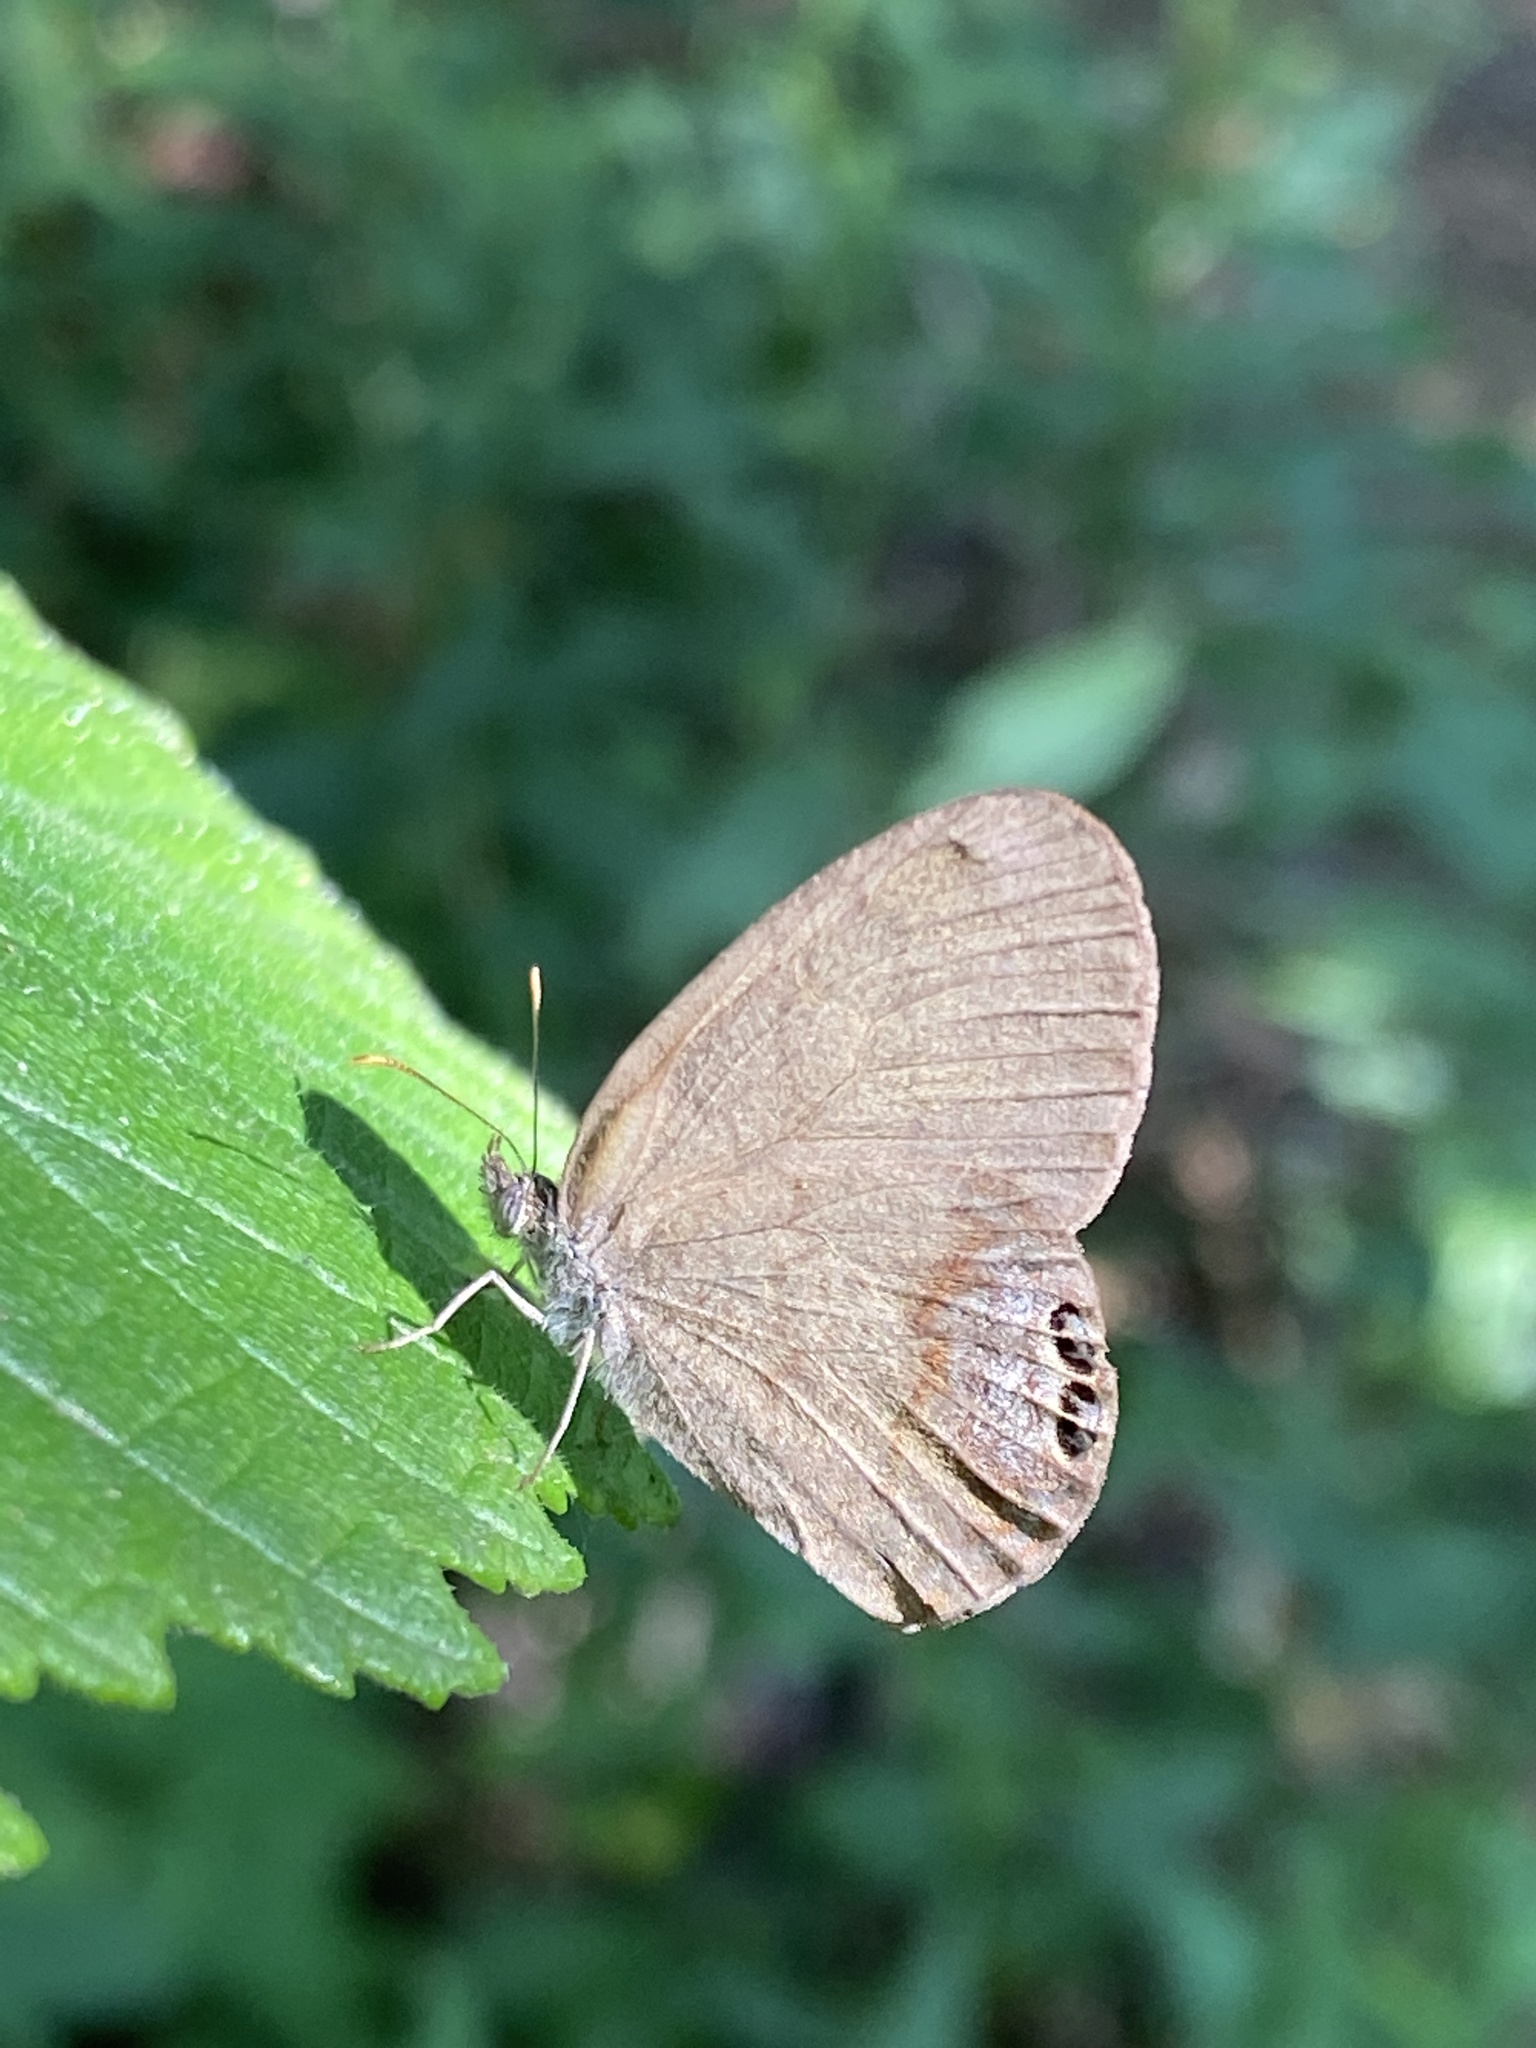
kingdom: Animalia
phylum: Arthropoda
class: Insecta
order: Lepidoptera
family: Nymphalidae
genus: Euptychia
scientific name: Euptychia cornelius
